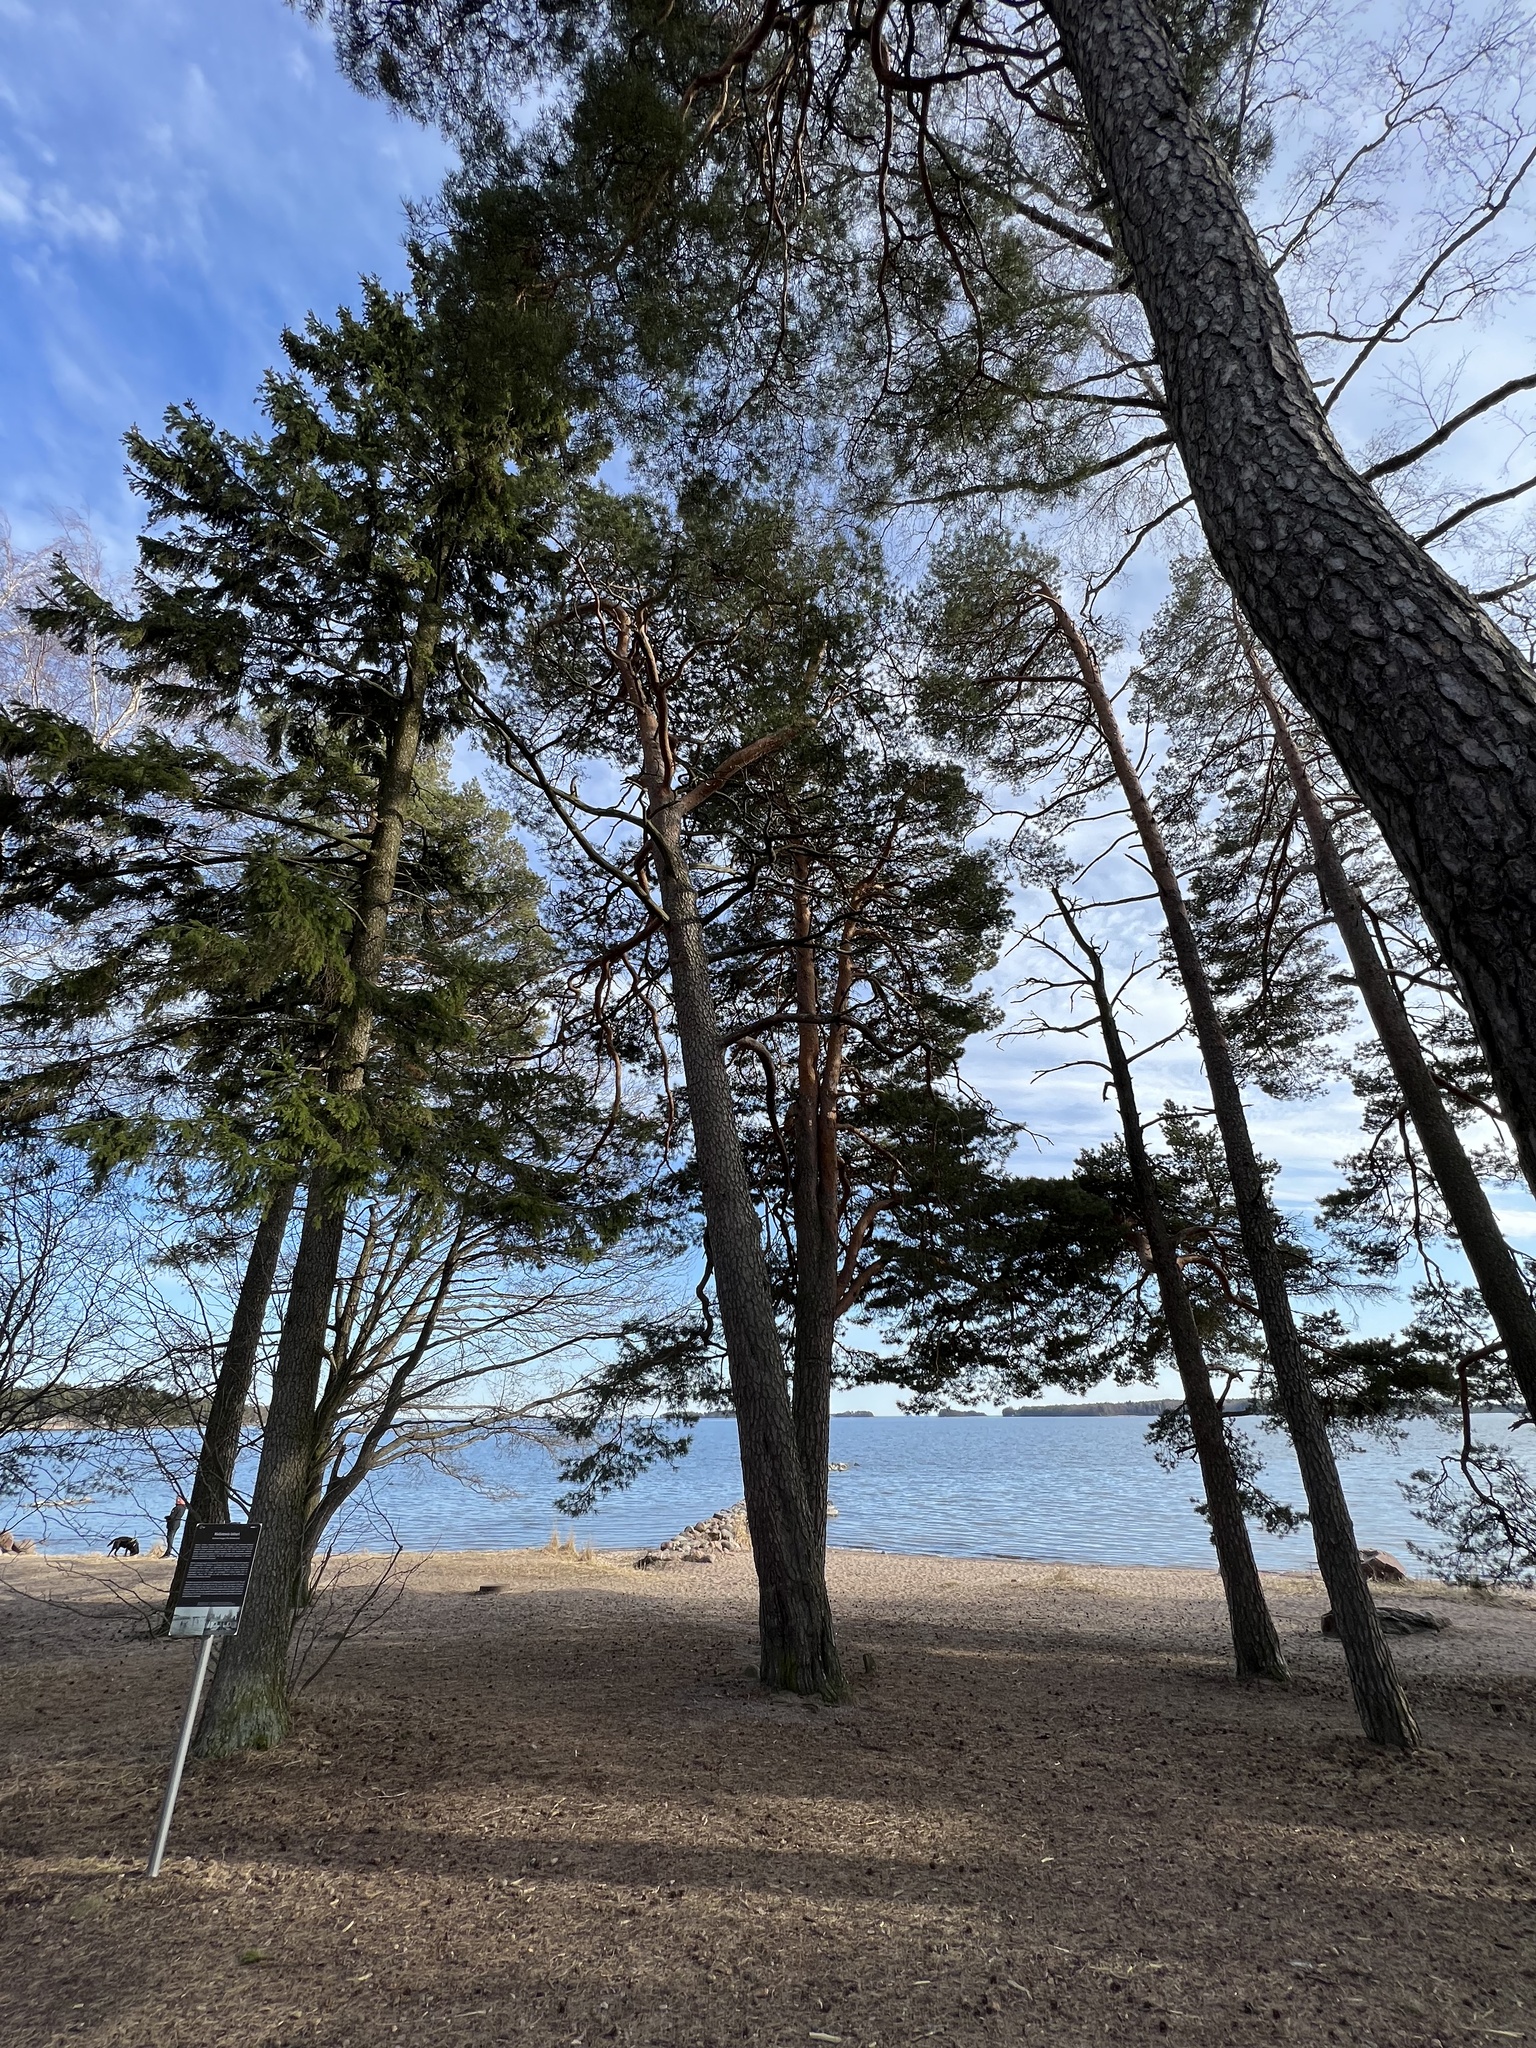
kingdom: Plantae
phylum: Tracheophyta
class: Pinopsida
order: Pinales
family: Pinaceae
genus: Pinus
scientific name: Pinus sylvestris
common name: Scots pine
